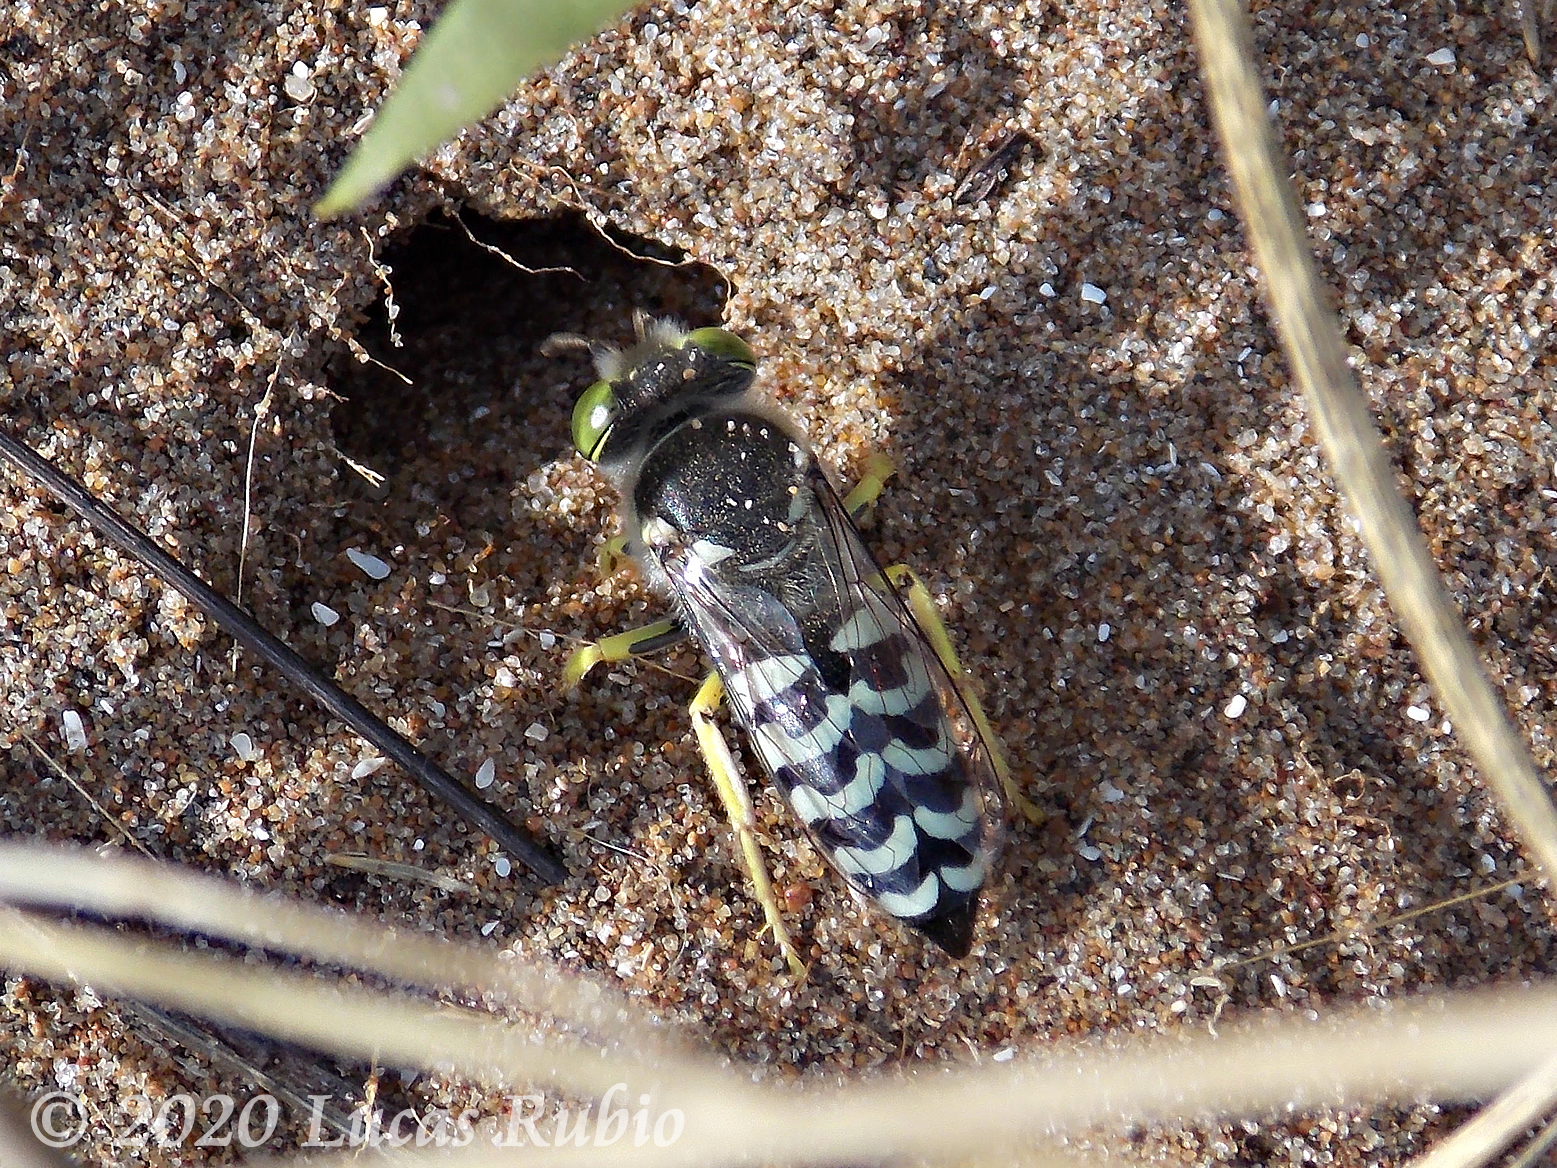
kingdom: Animalia
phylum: Arthropoda
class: Insecta
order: Hymenoptera
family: Crabronidae
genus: Bembix
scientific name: Bembix citripes
